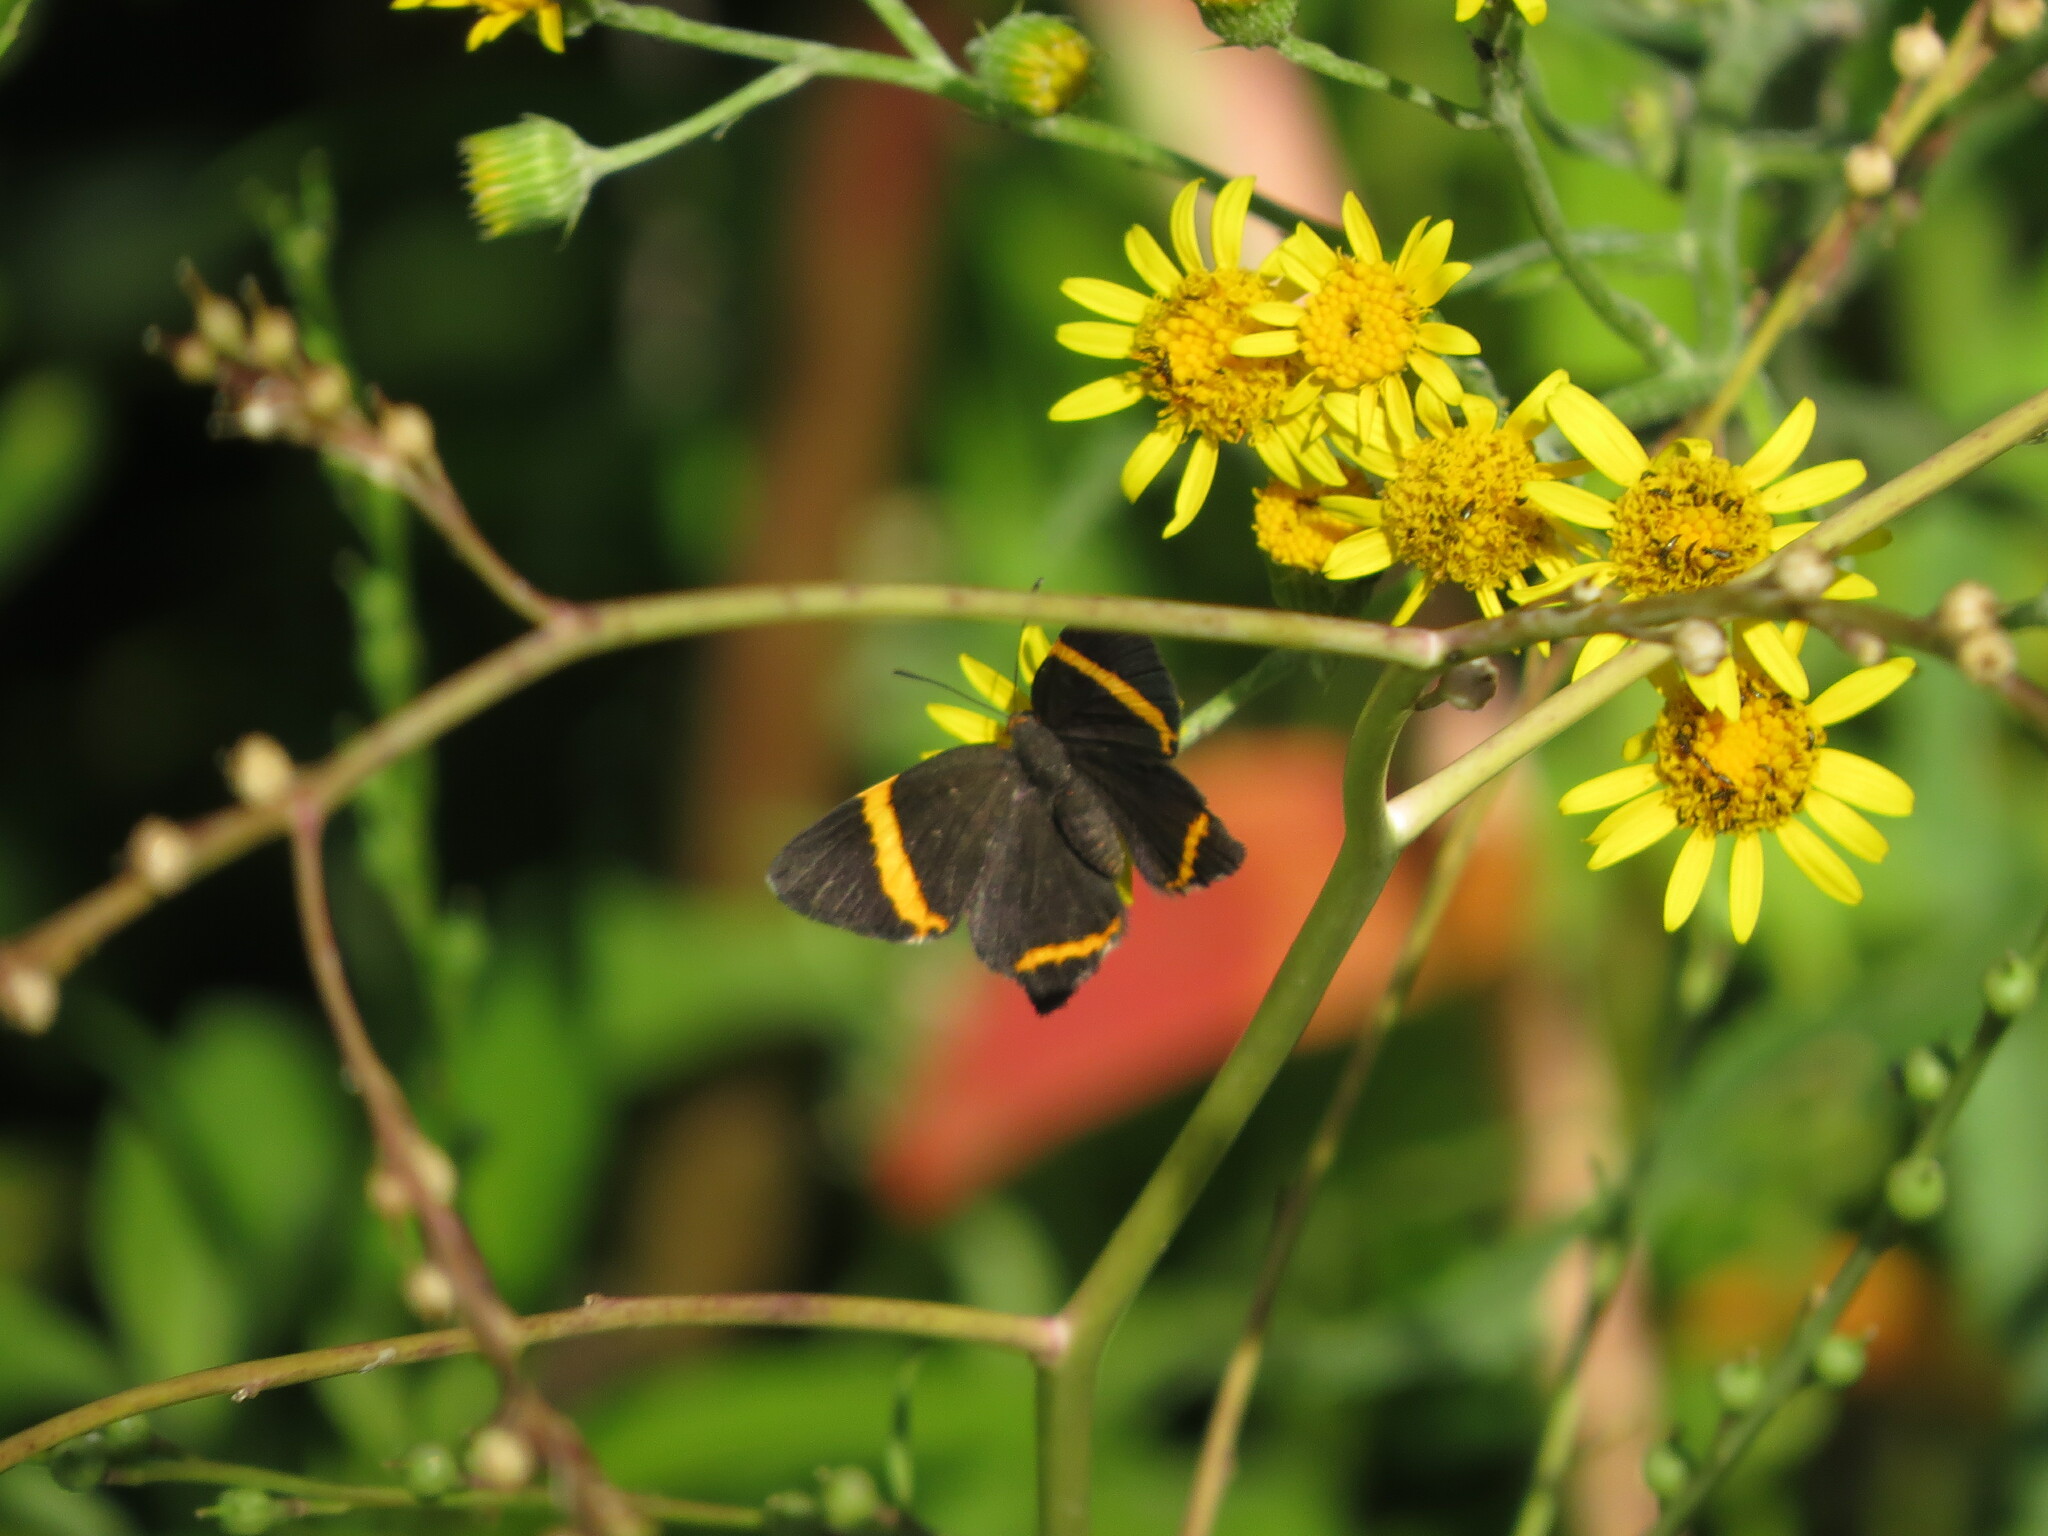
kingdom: Animalia
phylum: Arthropoda
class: Insecta
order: Lepidoptera
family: Riodinidae
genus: Riodina
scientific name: Riodina lysippoides
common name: Little dancer metalmark
